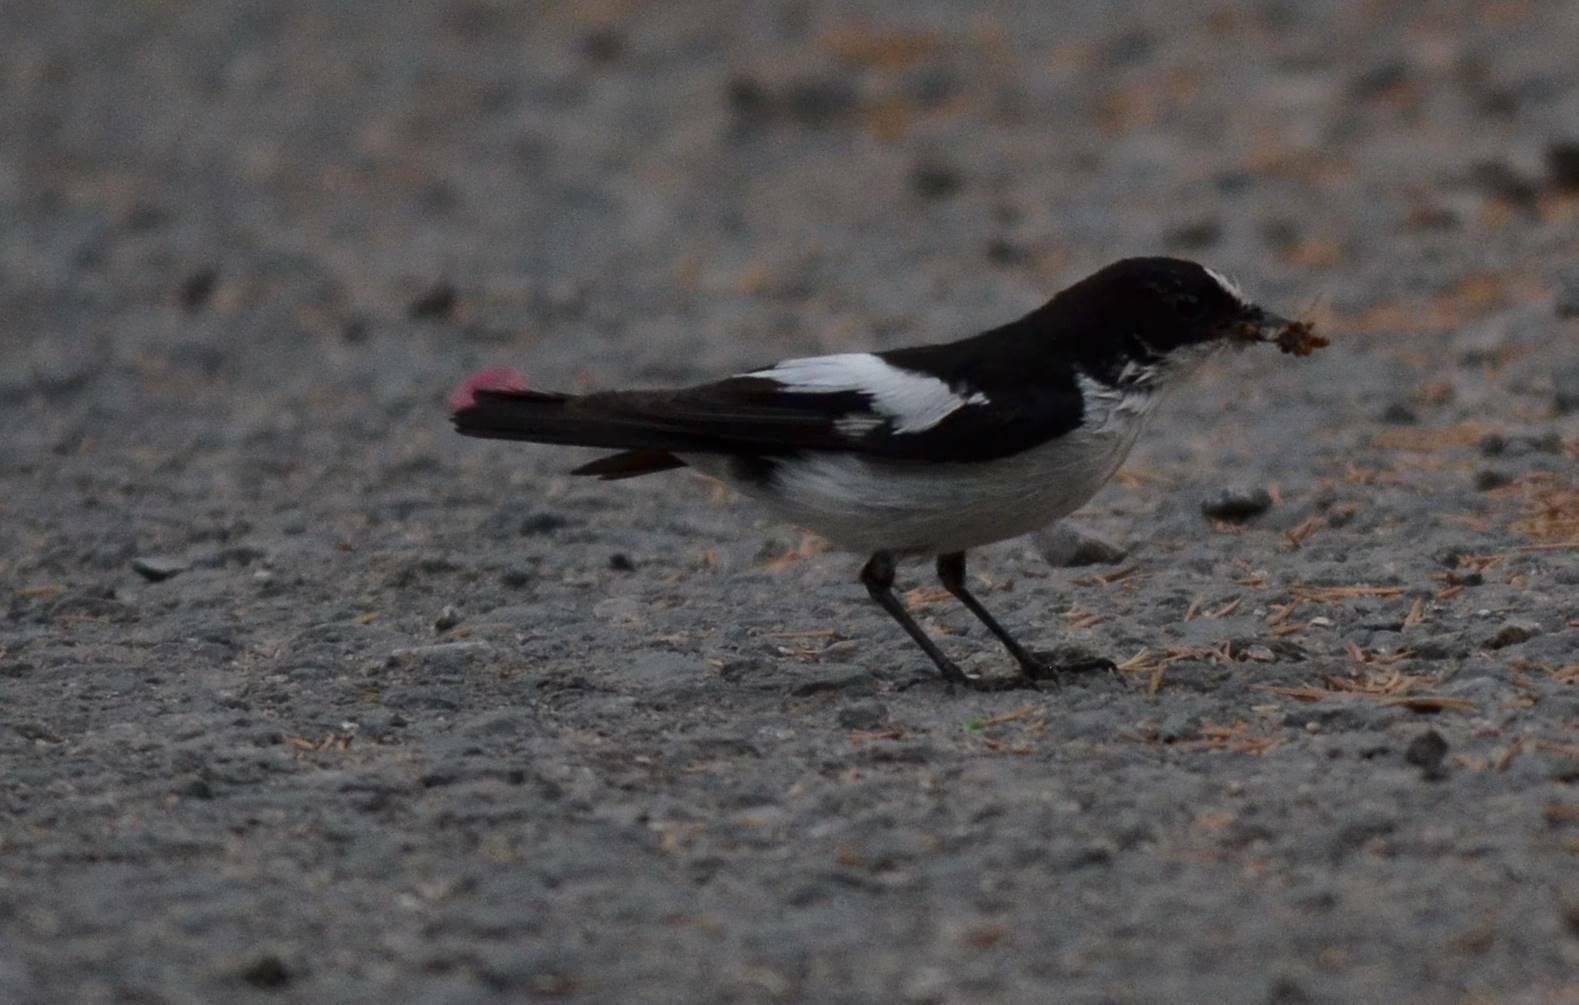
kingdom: Animalia
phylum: Chordata
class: Aves
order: Passeriformes
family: Muscicapidae
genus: Ficedula
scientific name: Ficedula speculigera
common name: Atlas pied flycatcher
